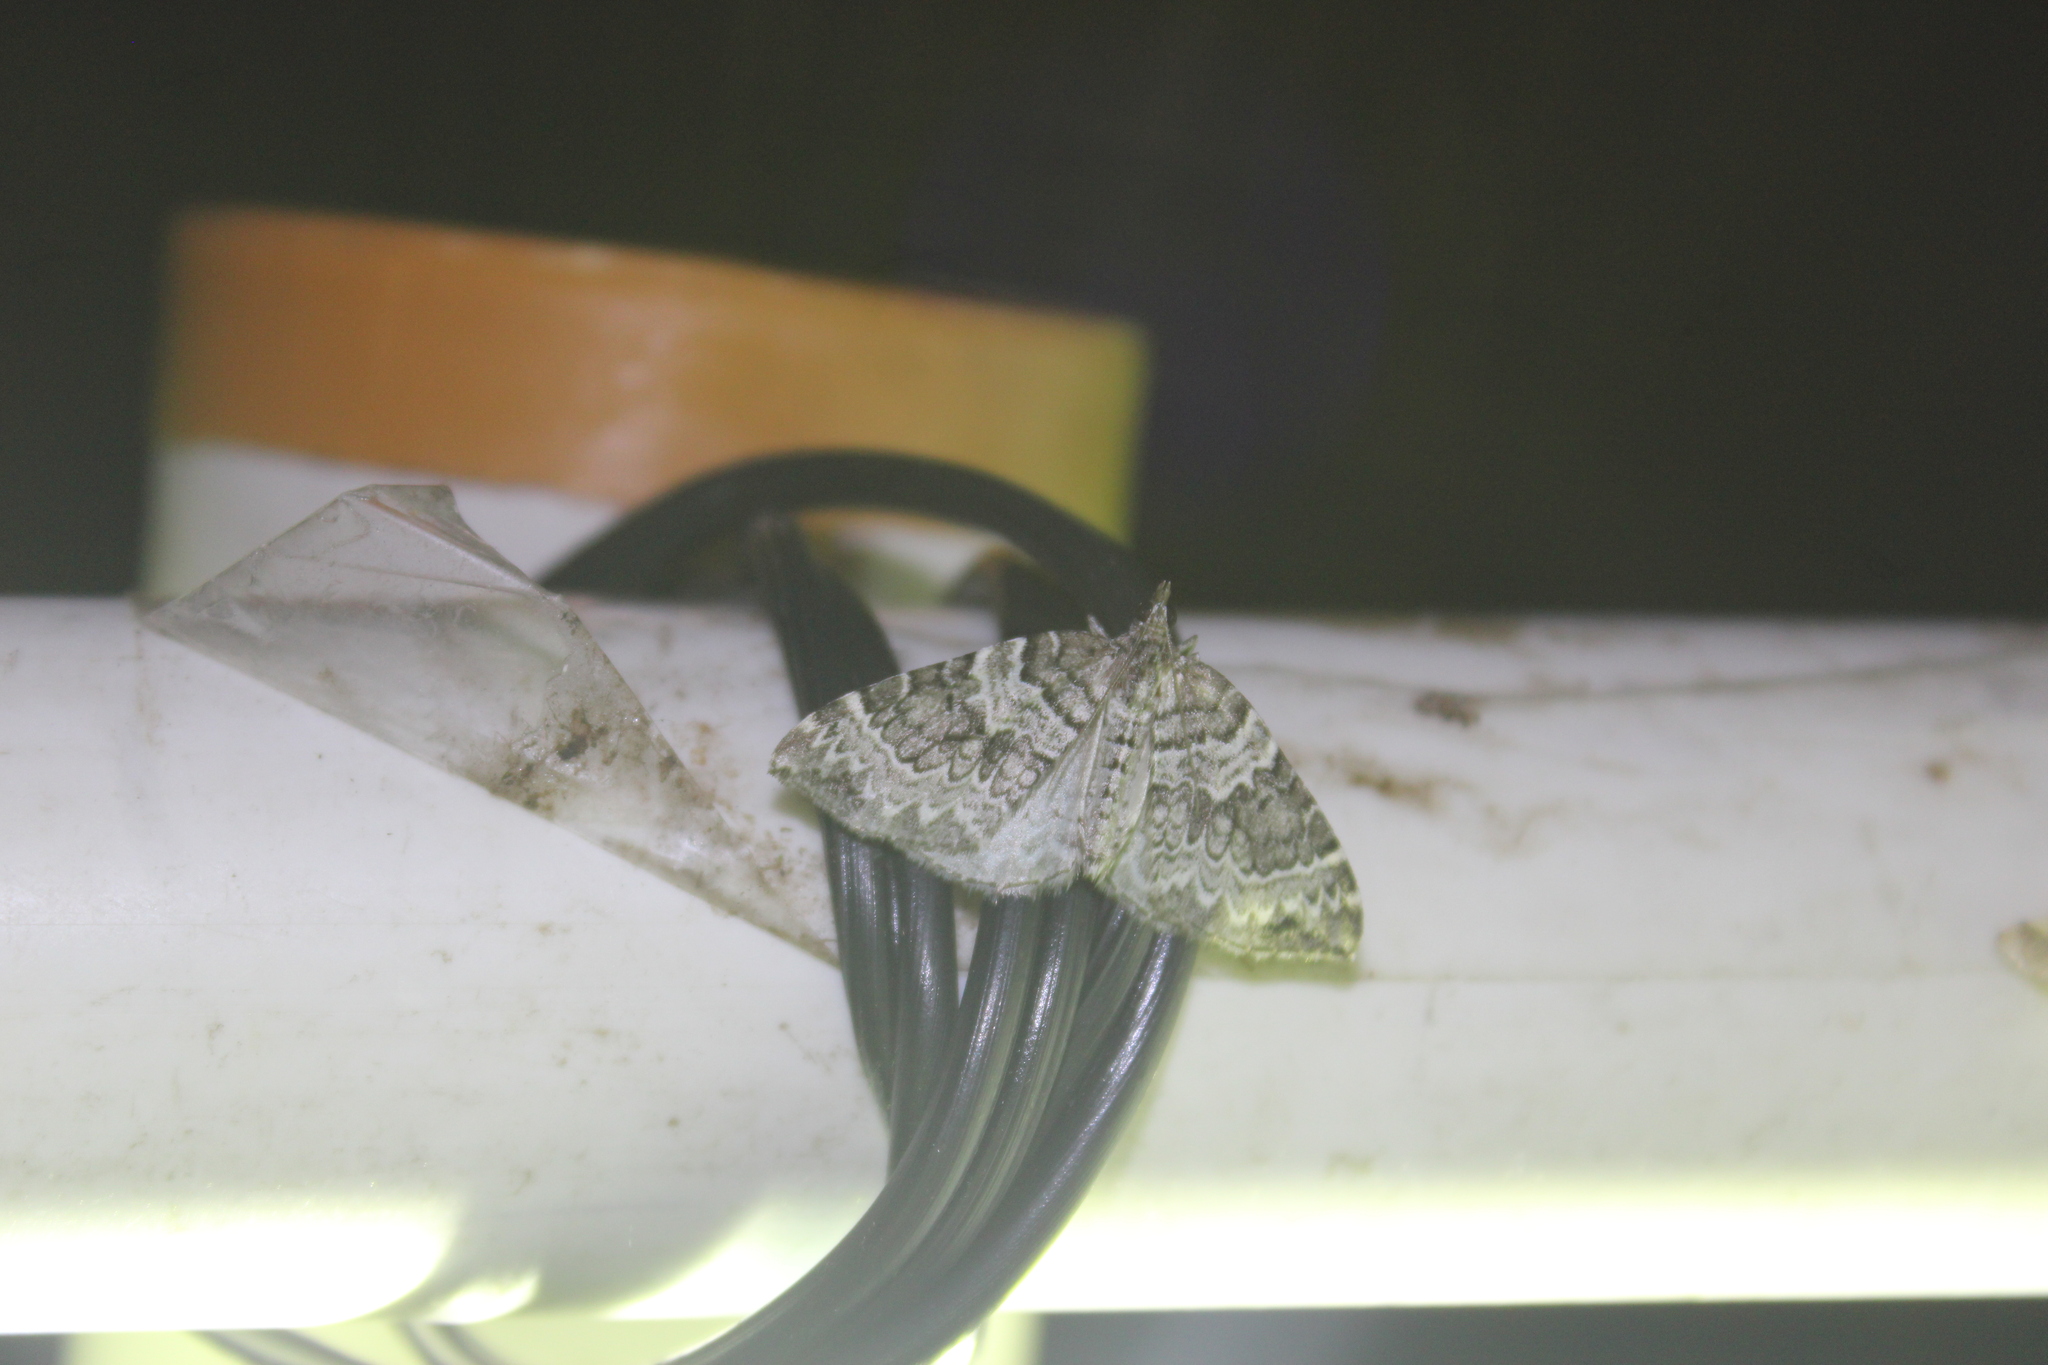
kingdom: Animalia
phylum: Arthropoda
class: Insecta
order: Lepidoptera
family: Geometridae
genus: Eulithis
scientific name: Eulithis explanata
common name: White eulithis
